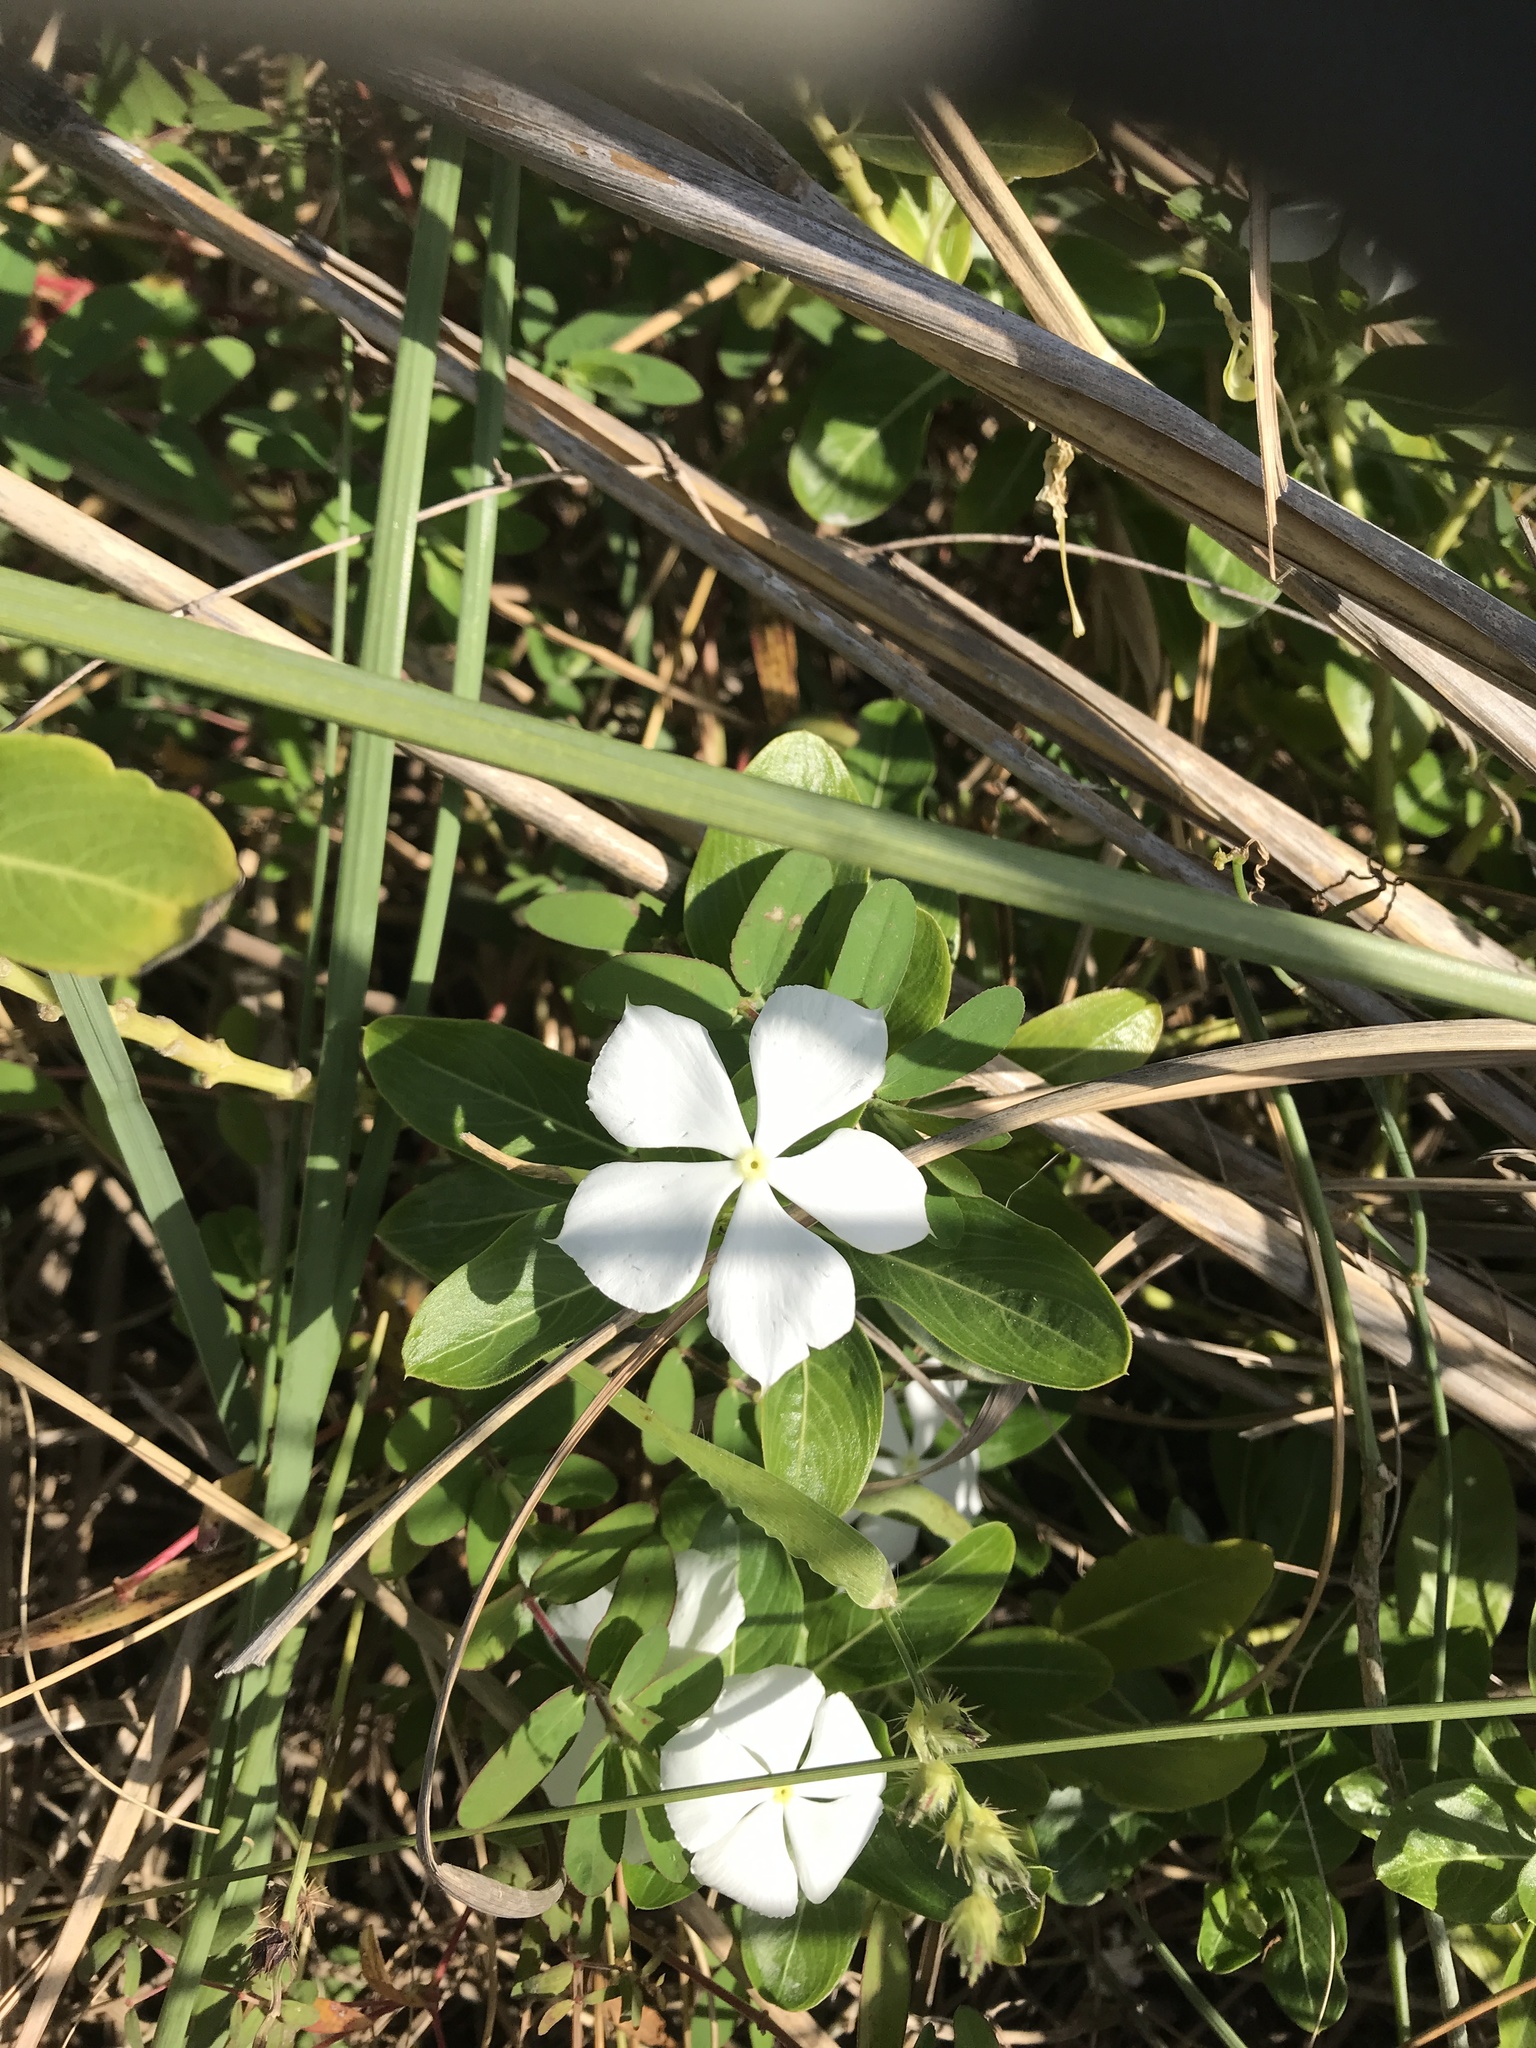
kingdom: Plantae
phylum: Tracheophyta
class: Magnoliopsida
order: Gentianales
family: Apocynaceae
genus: Catharanthus
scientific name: Catharanthus roseus
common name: Madagascar periwinkle
